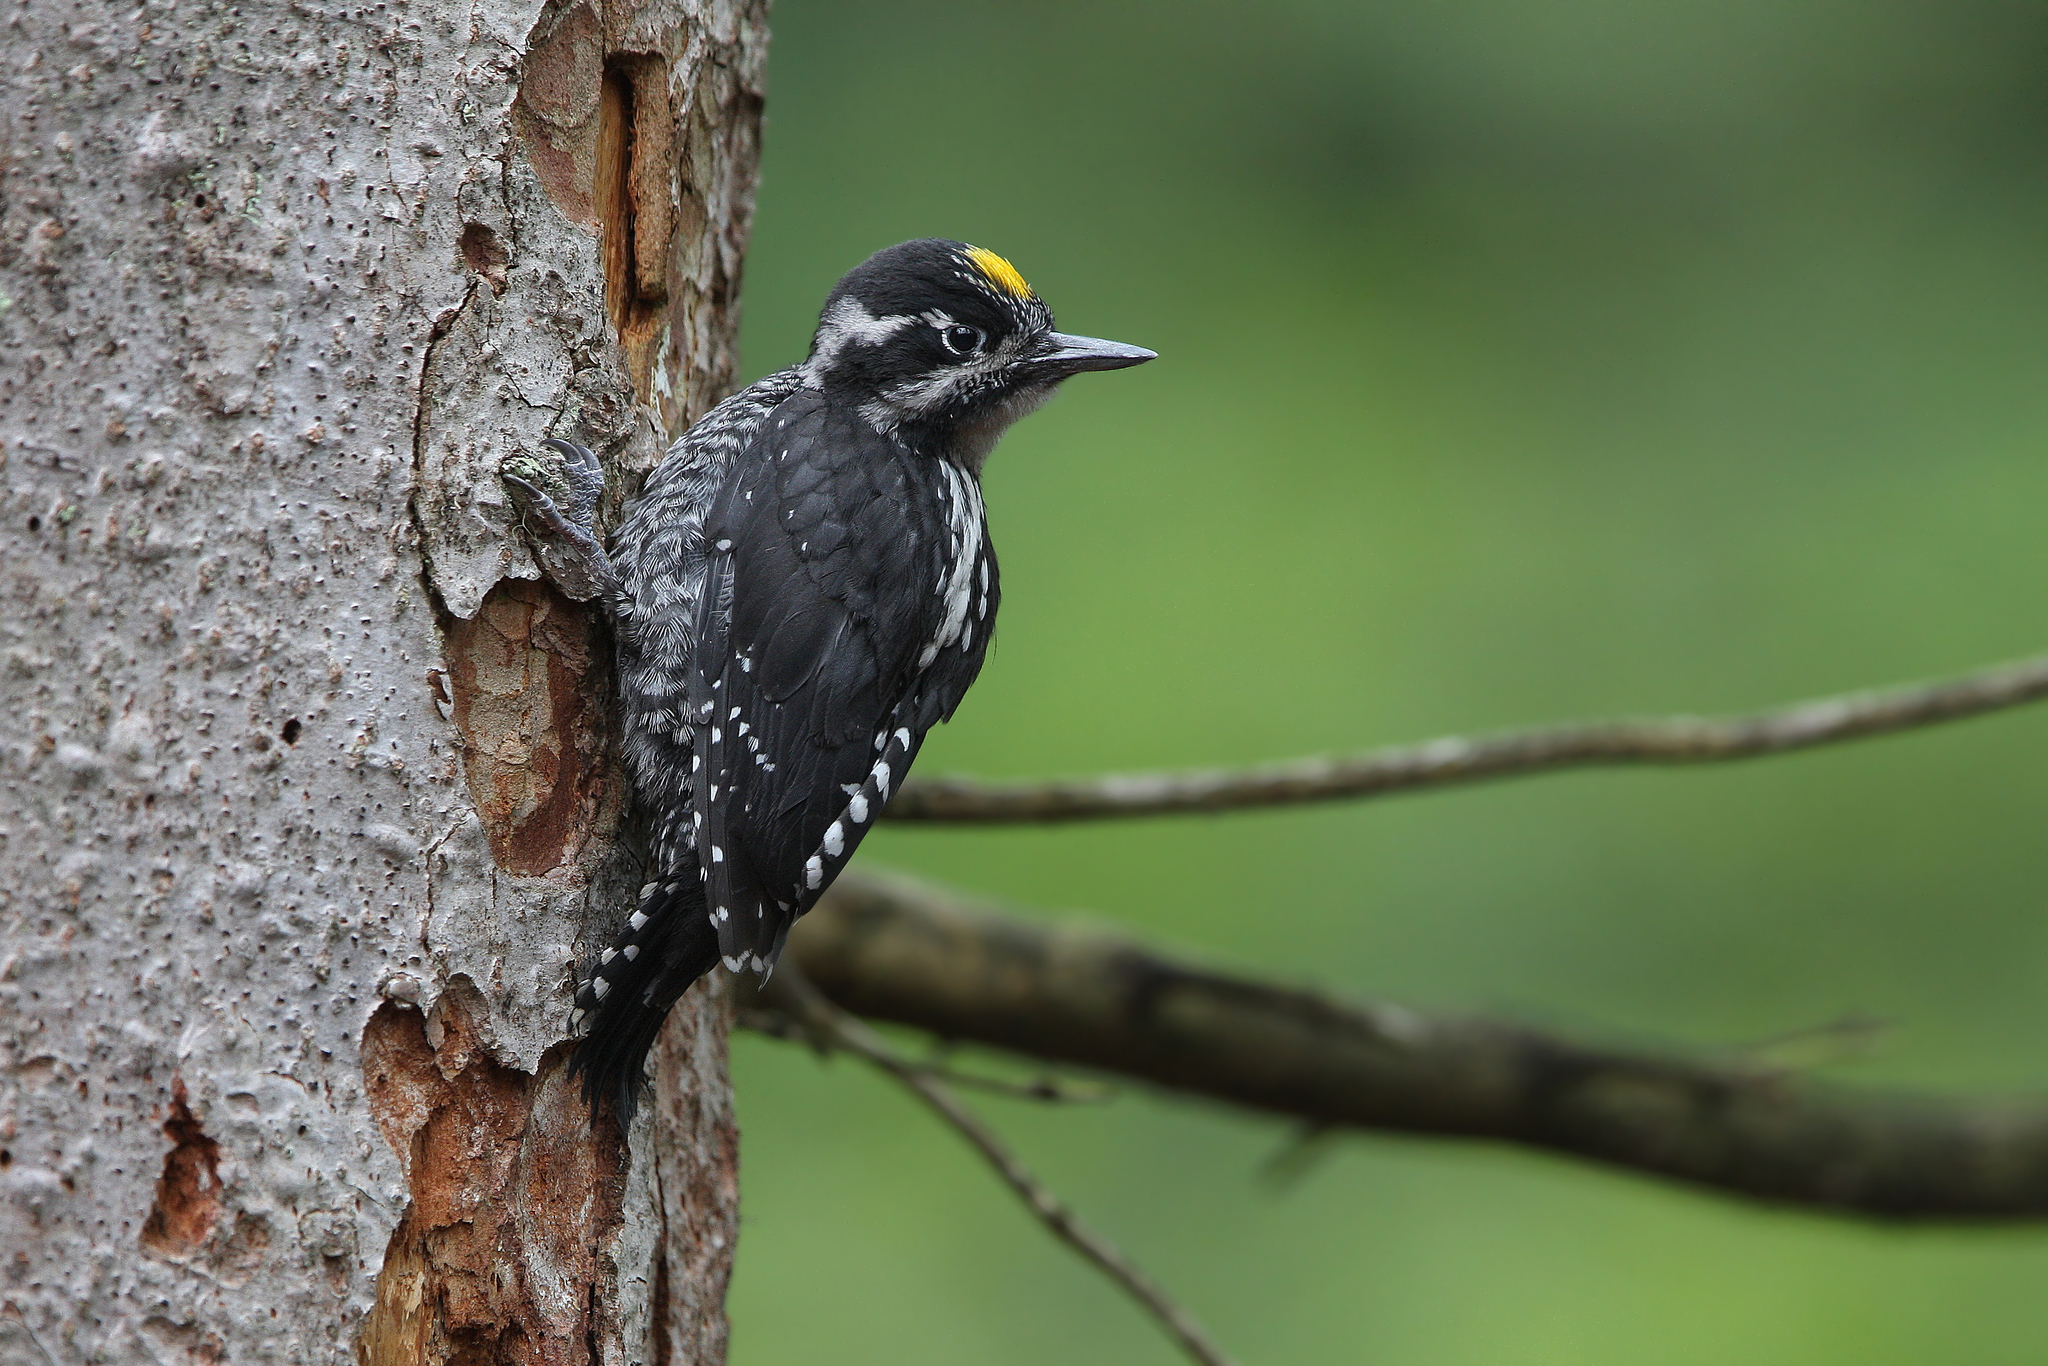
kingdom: Animalia
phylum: Chordata
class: Aves
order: Piciformes
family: Picidae
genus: Picoides
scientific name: Picoides tridactylus
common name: Eurasian three-toed woodpecker
